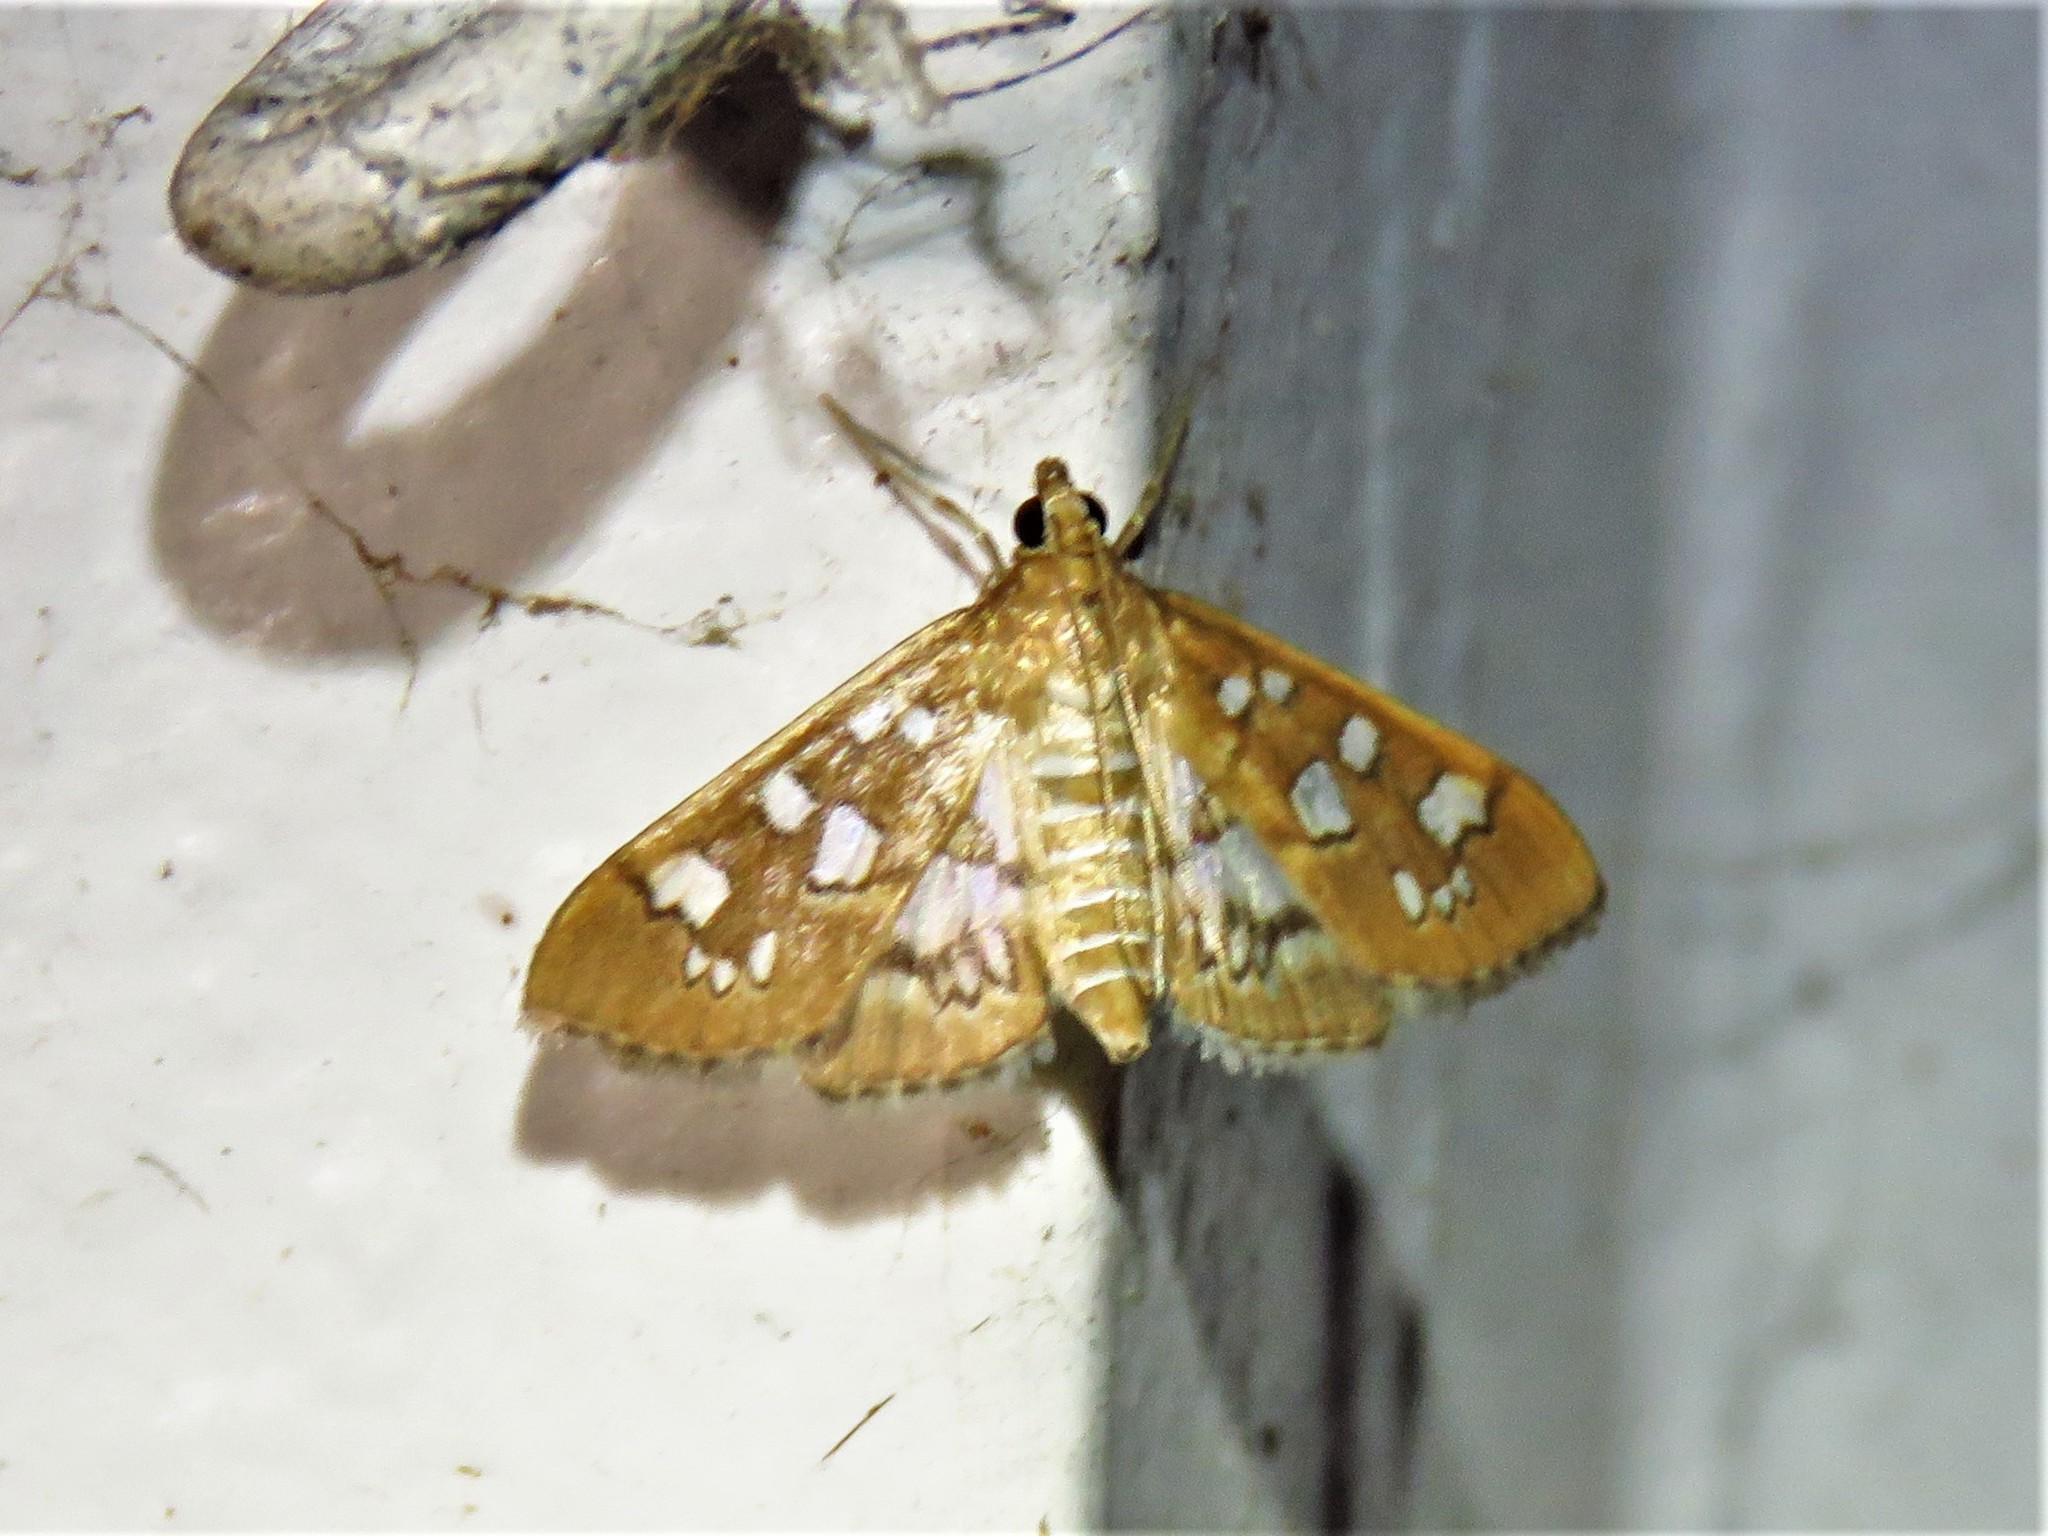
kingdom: Animalia
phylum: Arthropoda
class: Insecta
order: Lepidoptera
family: Crambidae
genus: Samea
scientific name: Samea baccatalis
